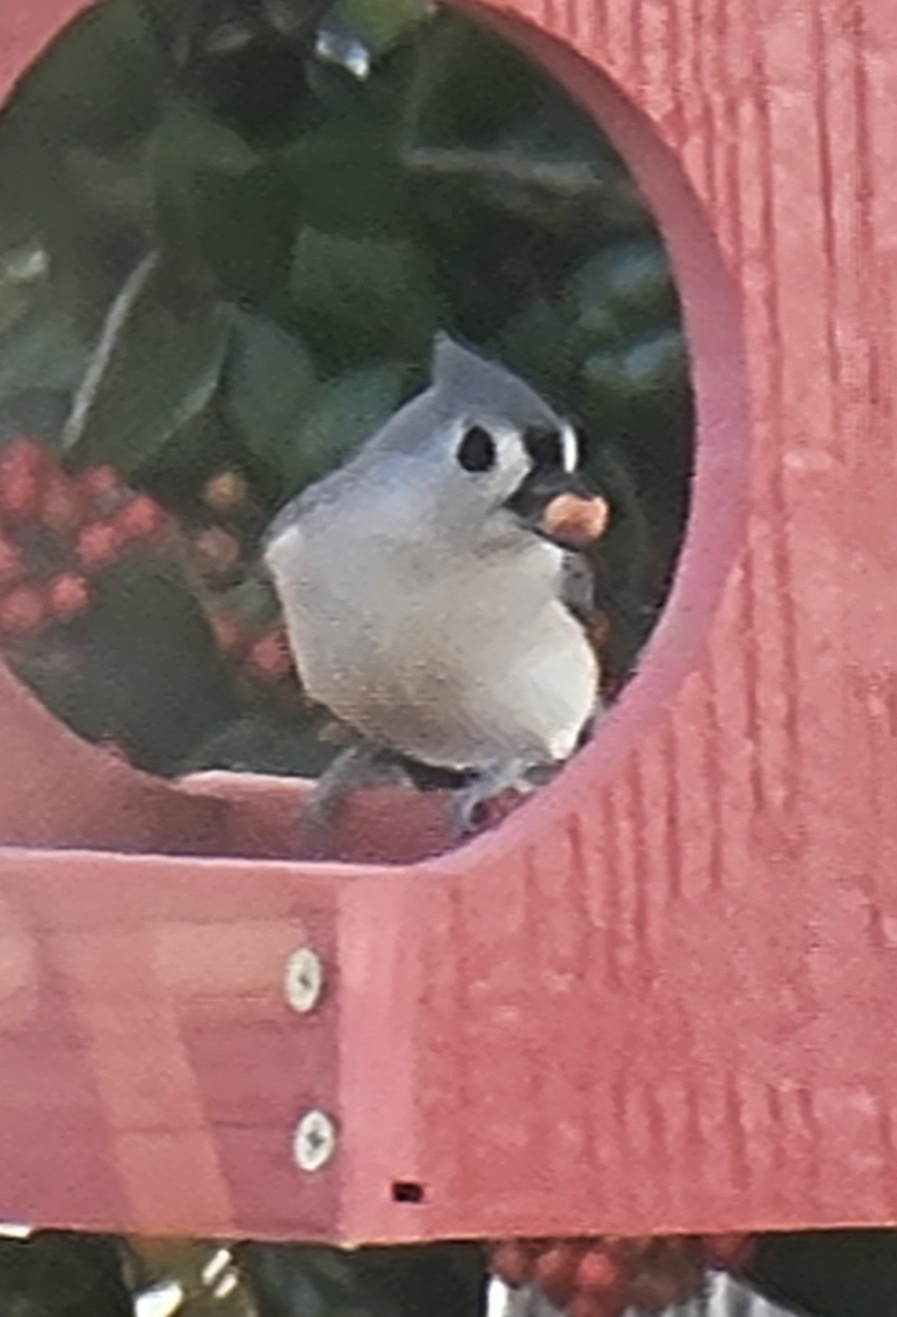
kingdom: Animalia
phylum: Chordata
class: Aves
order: Passeriformes
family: Paridae
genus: Baeolophus
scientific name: Baeolophus bicolor
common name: Tufted titmouse
